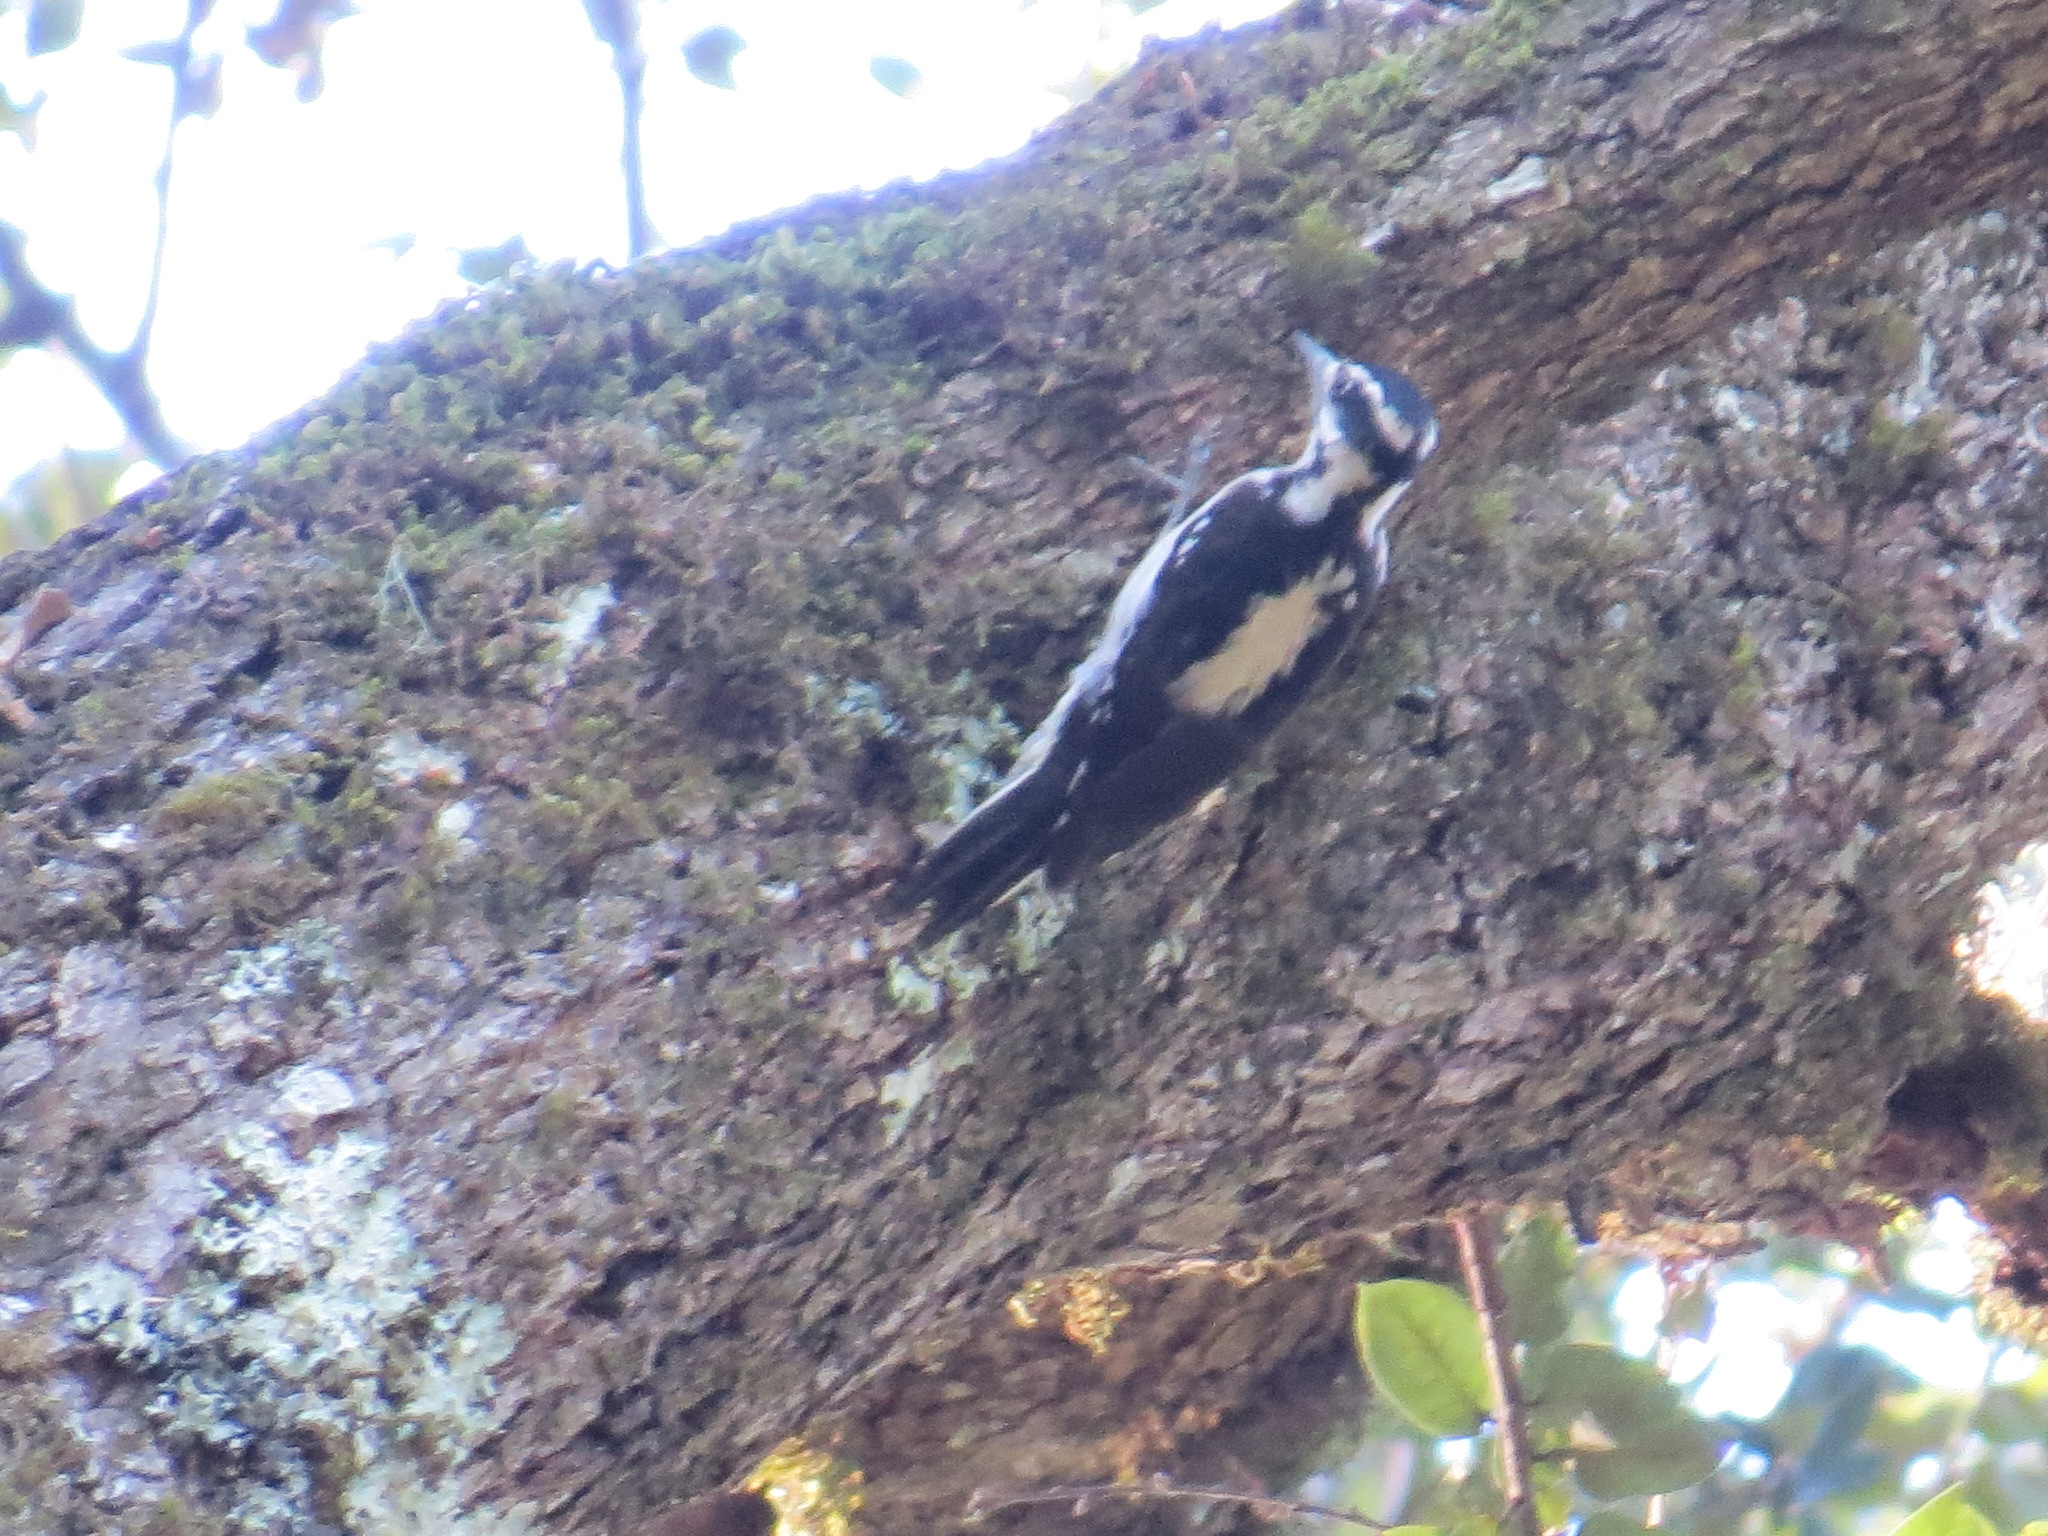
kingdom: Animalia
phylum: Chordata
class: Aves
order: Piciformes
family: Picidae
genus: Leuconotopicus
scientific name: Leuconotopicus villosus
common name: Hairy woodpecker
